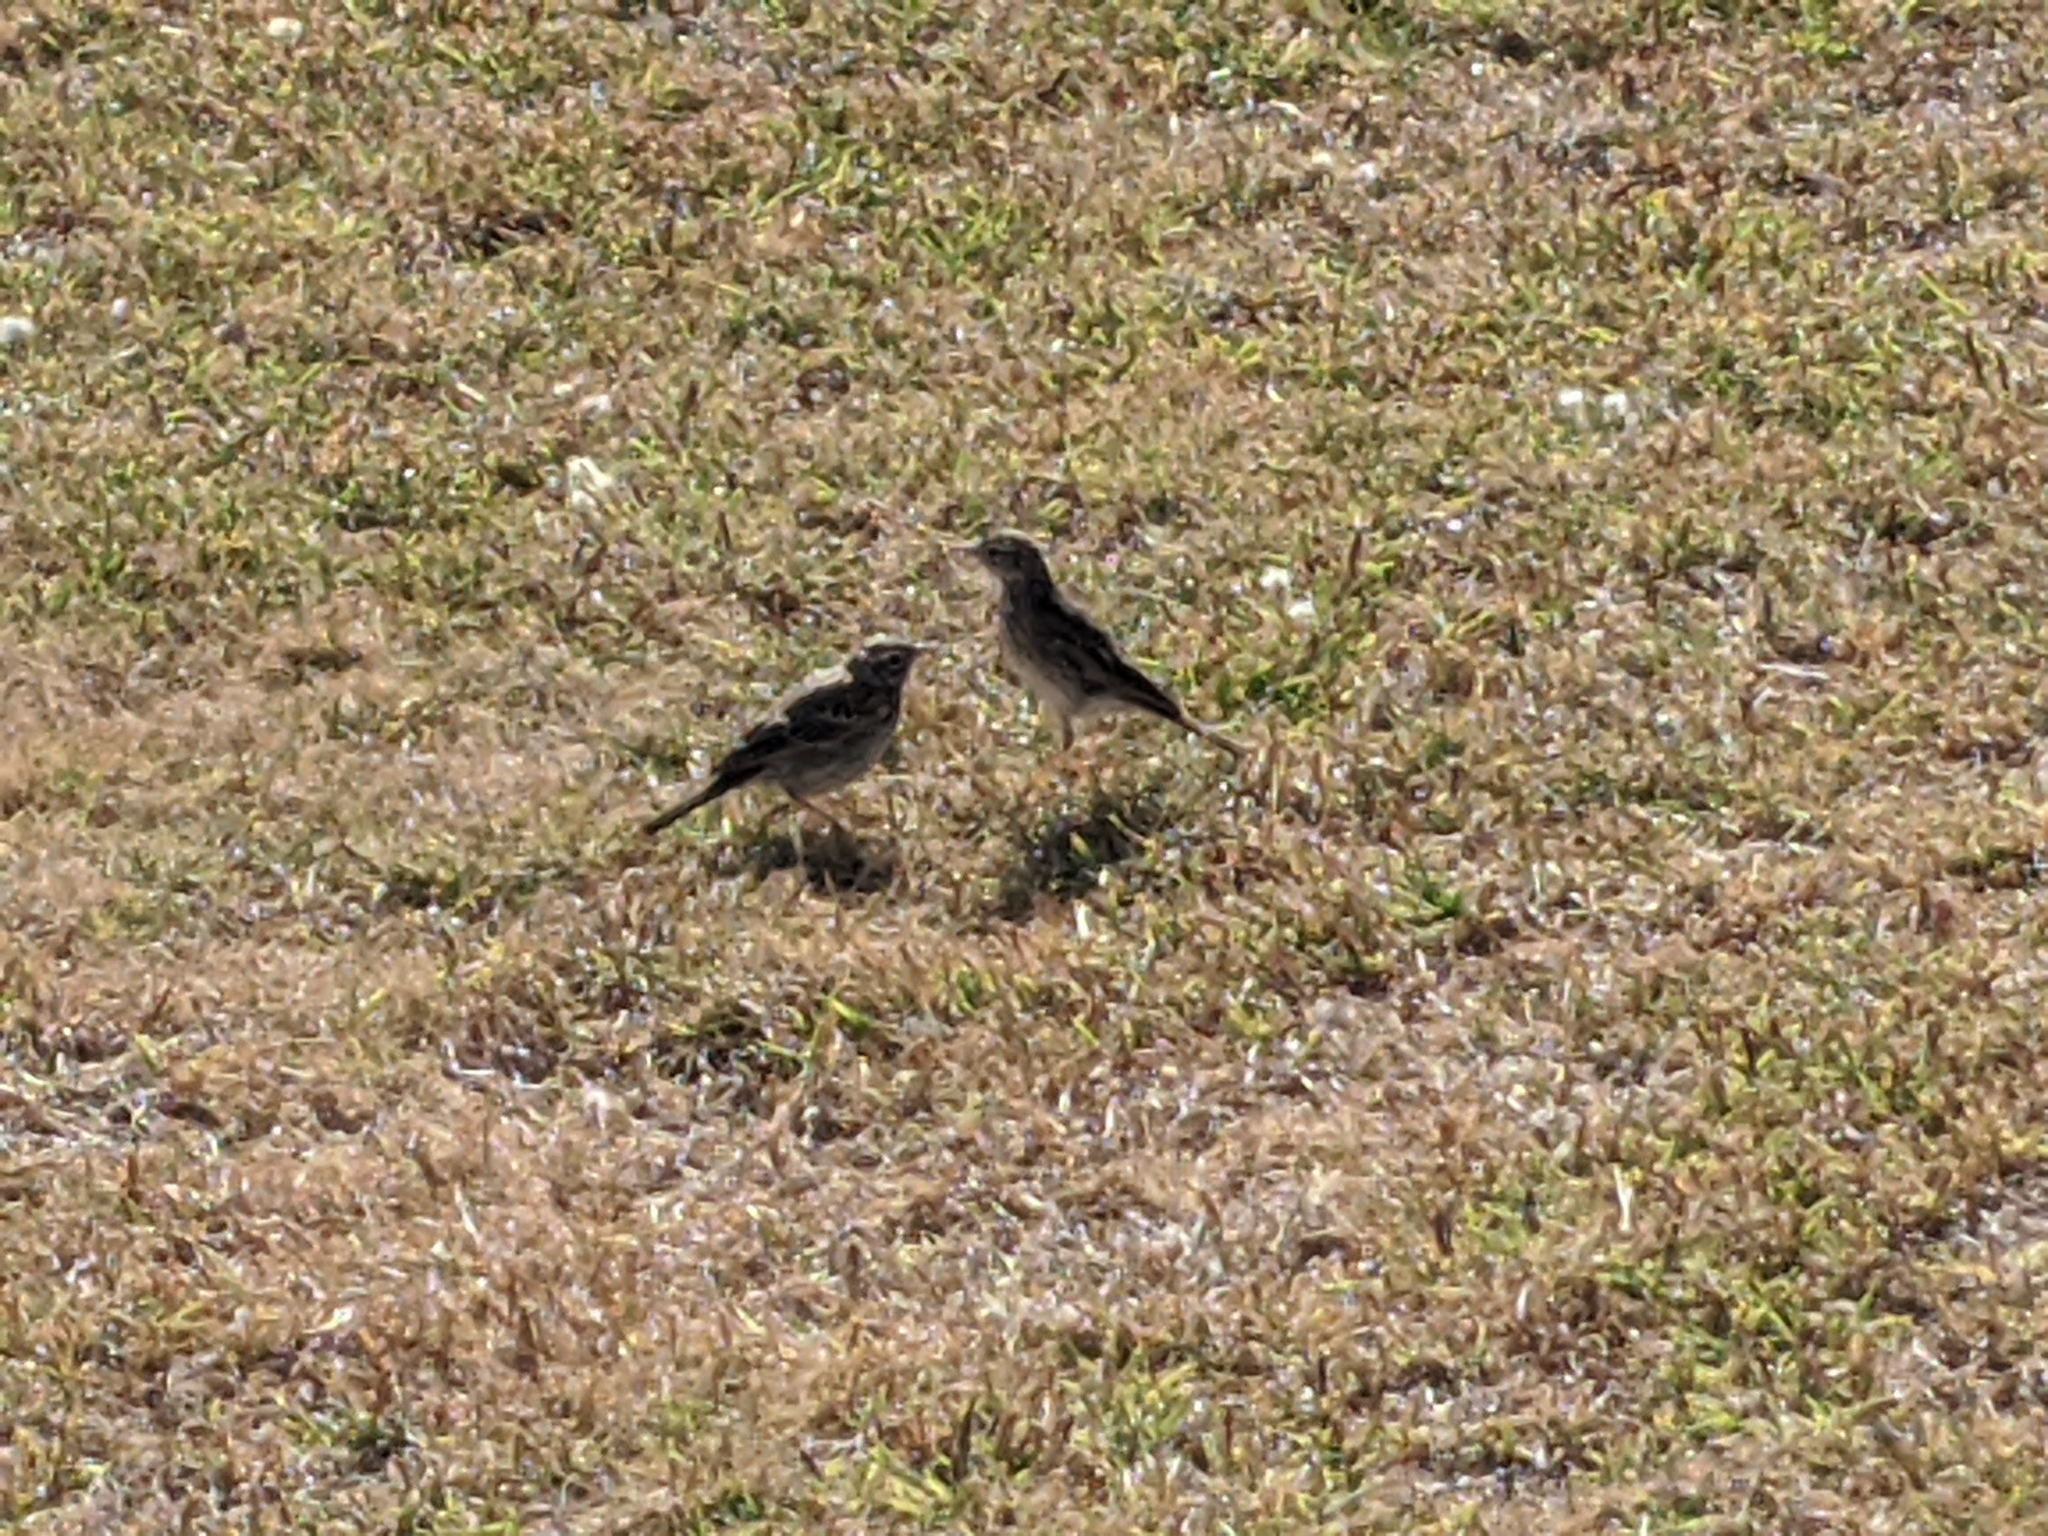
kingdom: Animalia
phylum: Chordata
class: Aves
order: Passeriformes
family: Motacillidae
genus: Anthus
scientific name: Anthus australis
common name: Australian pipit
